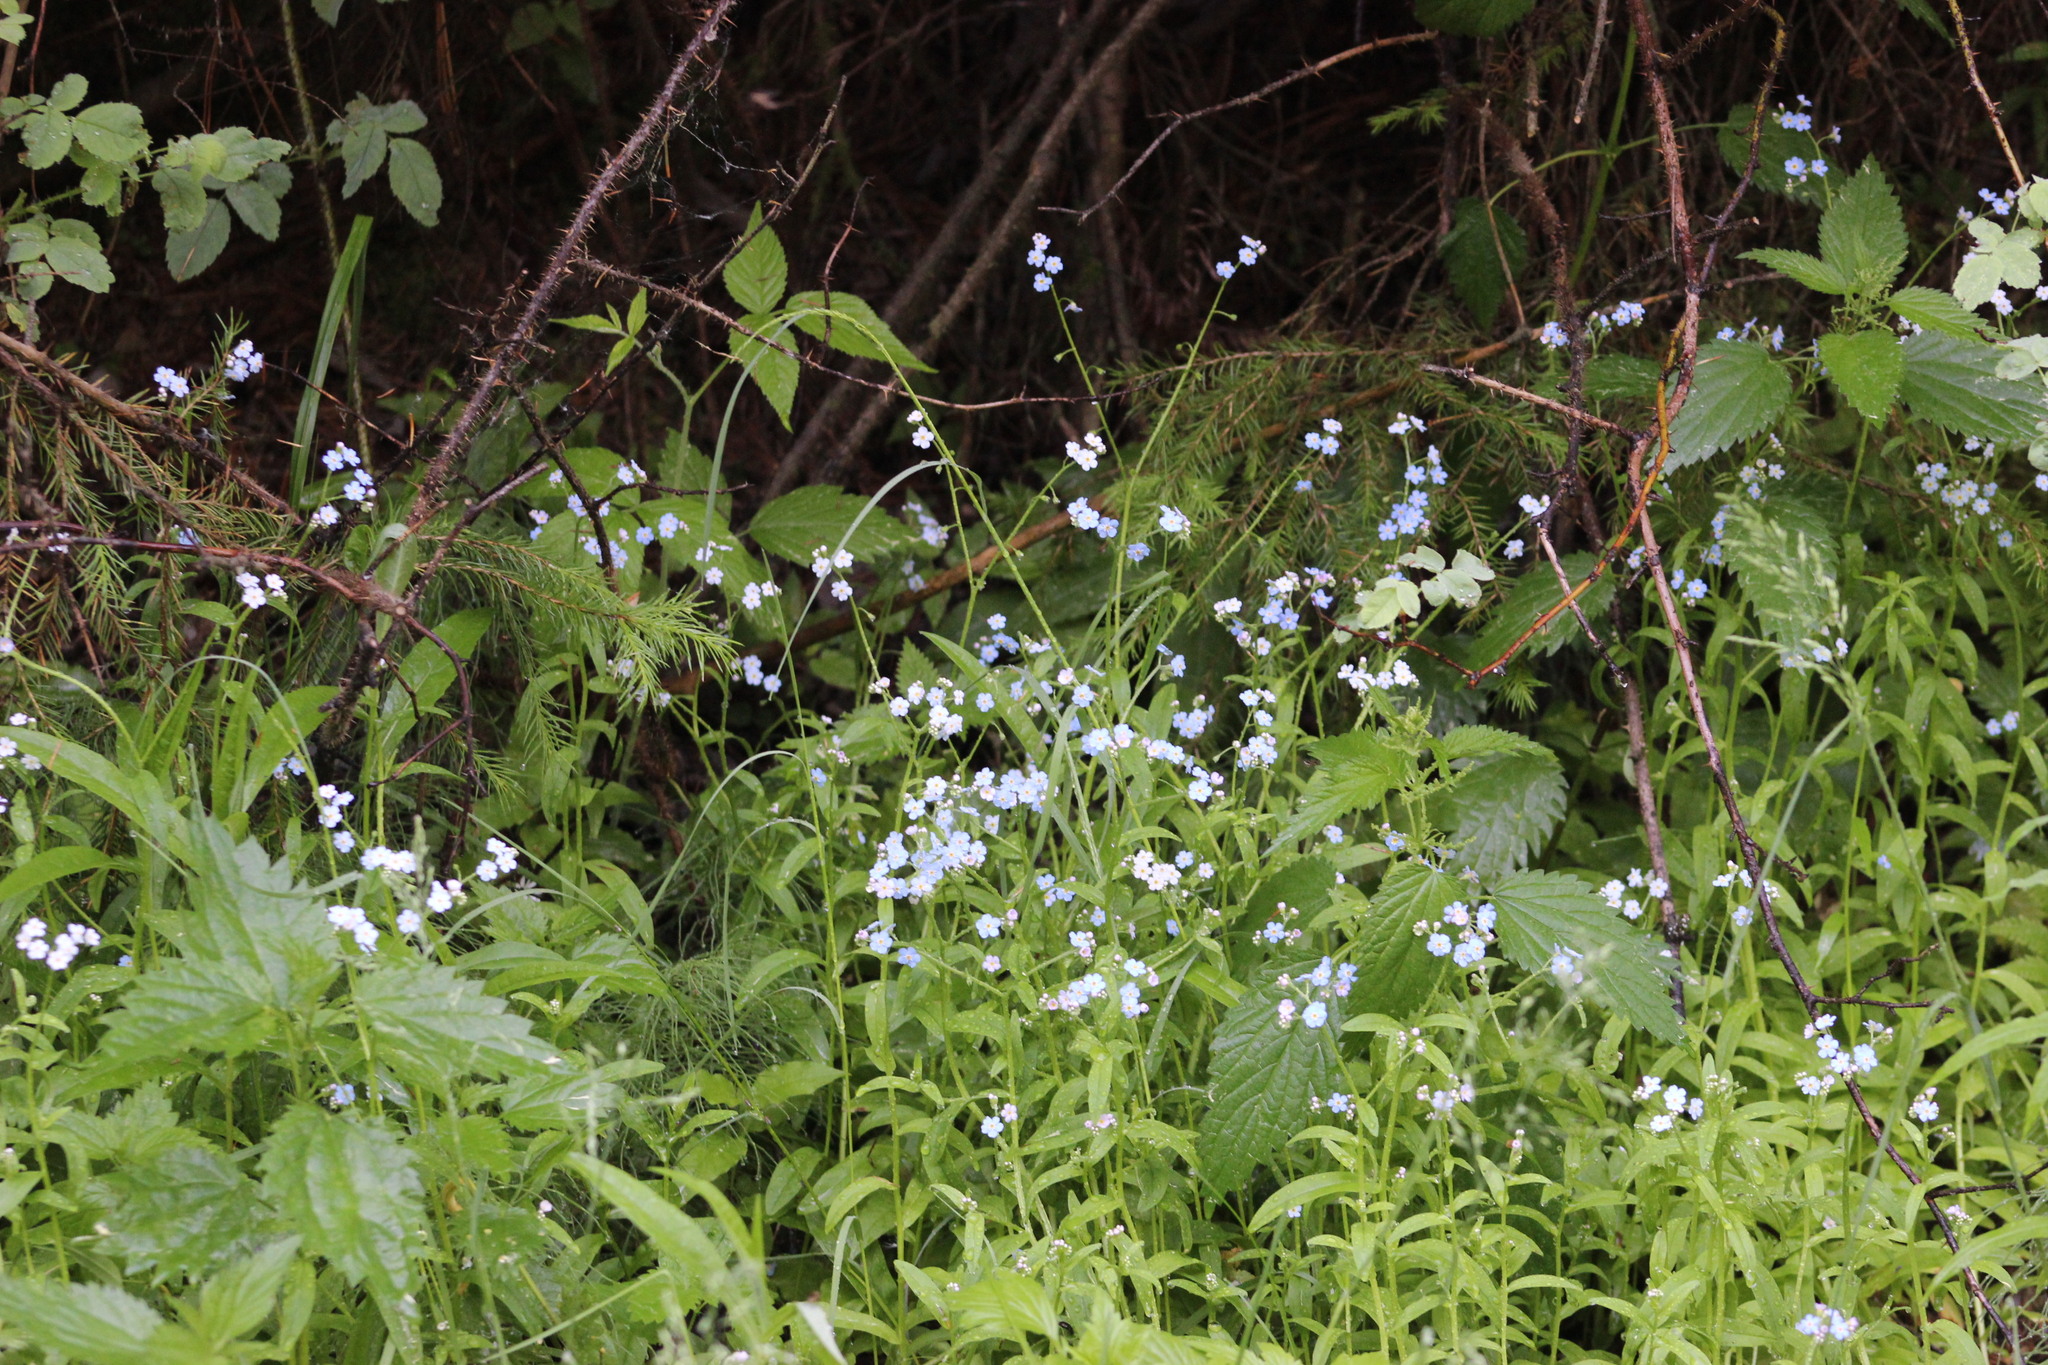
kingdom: Plantae
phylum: Tracheophyta
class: Magnoliopsida
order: Boraginales
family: Boraginaceae
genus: Myosotis
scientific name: Myosotis scorpioides
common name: Water forget-me-not
